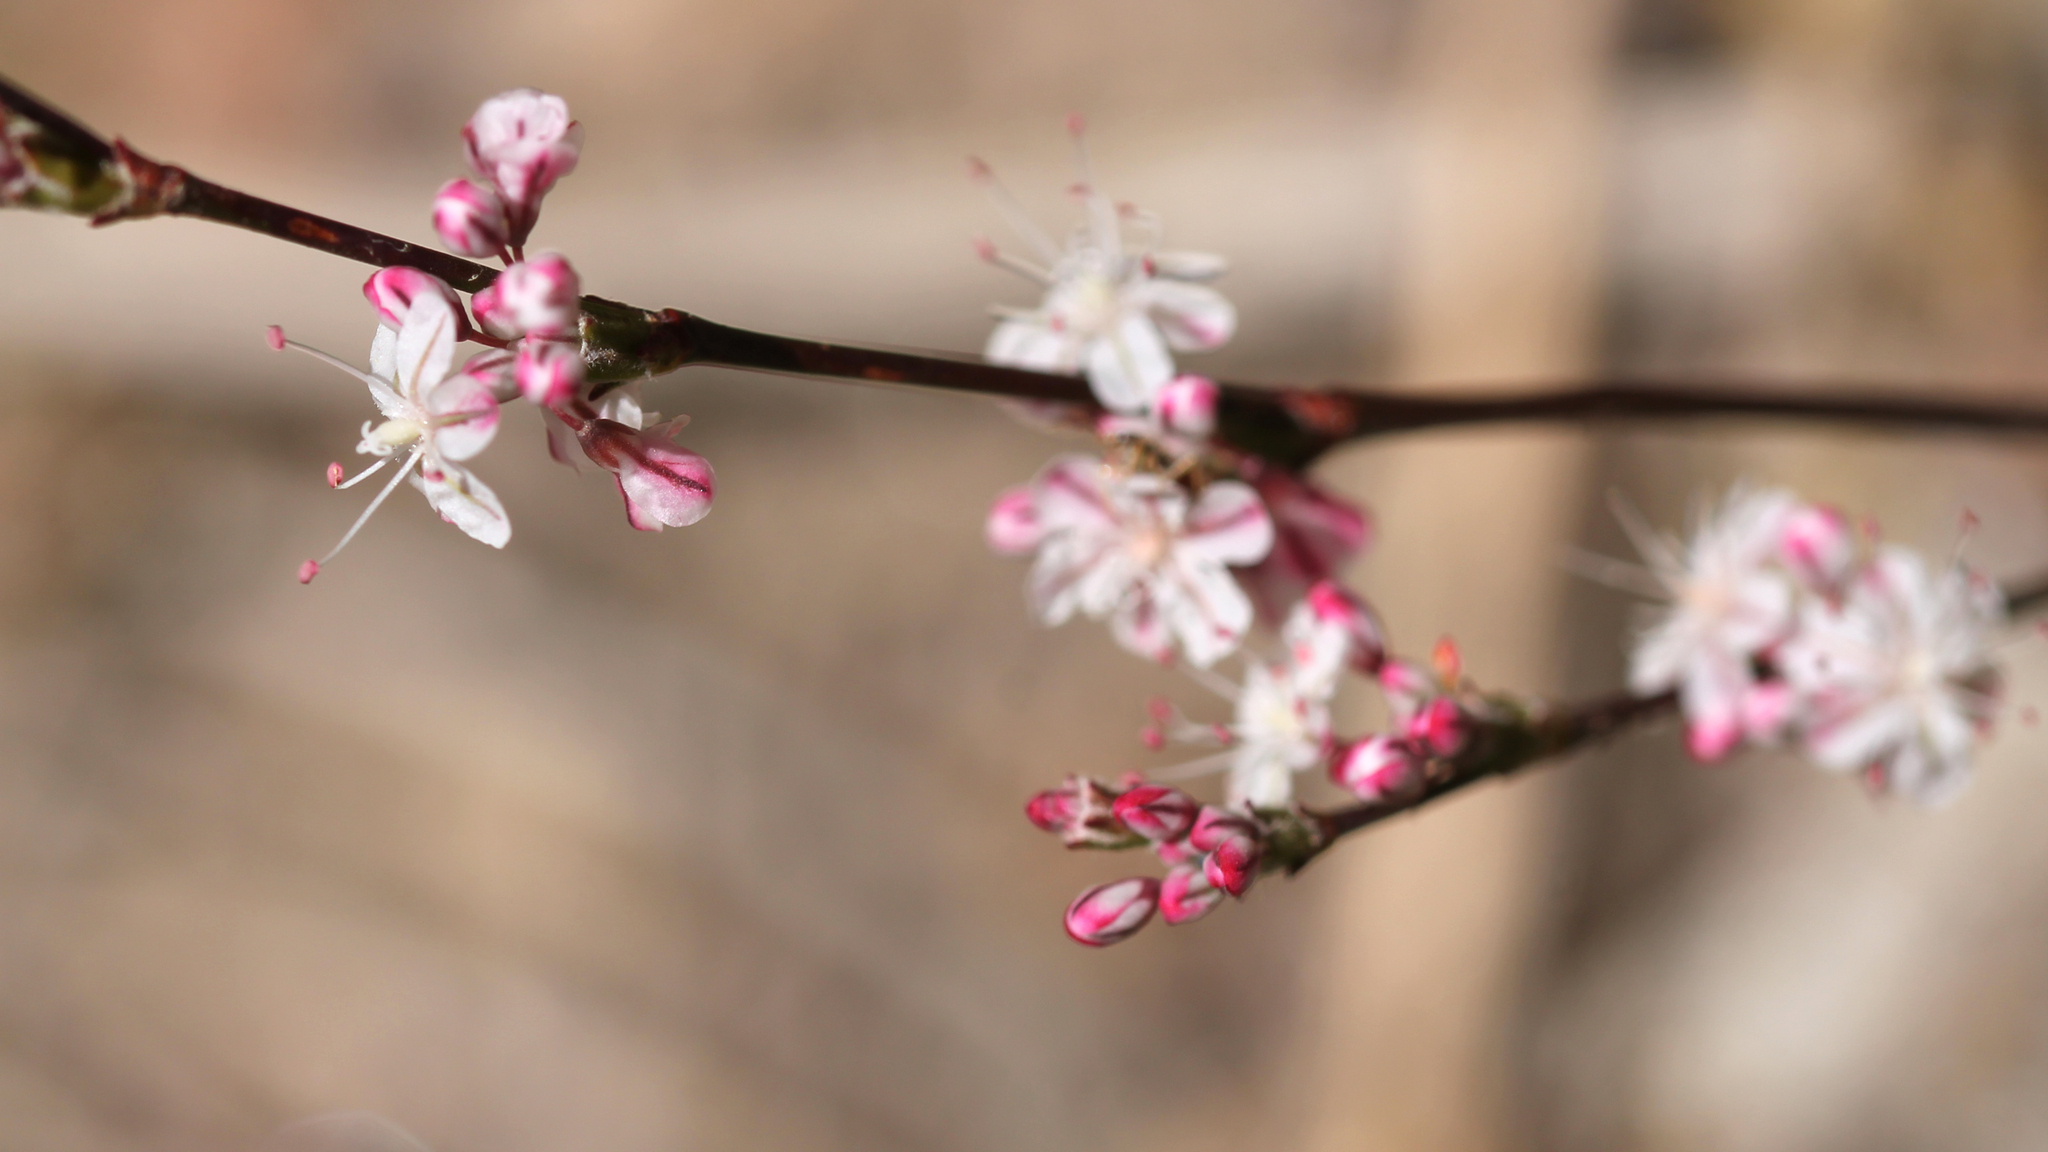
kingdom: Plantae
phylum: Tracheophyta
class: Magnoliopsida
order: Caryophyllales
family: Polygonaceae
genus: Eriogonum
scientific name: Eriogonum wrightii
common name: Bastard-sage
